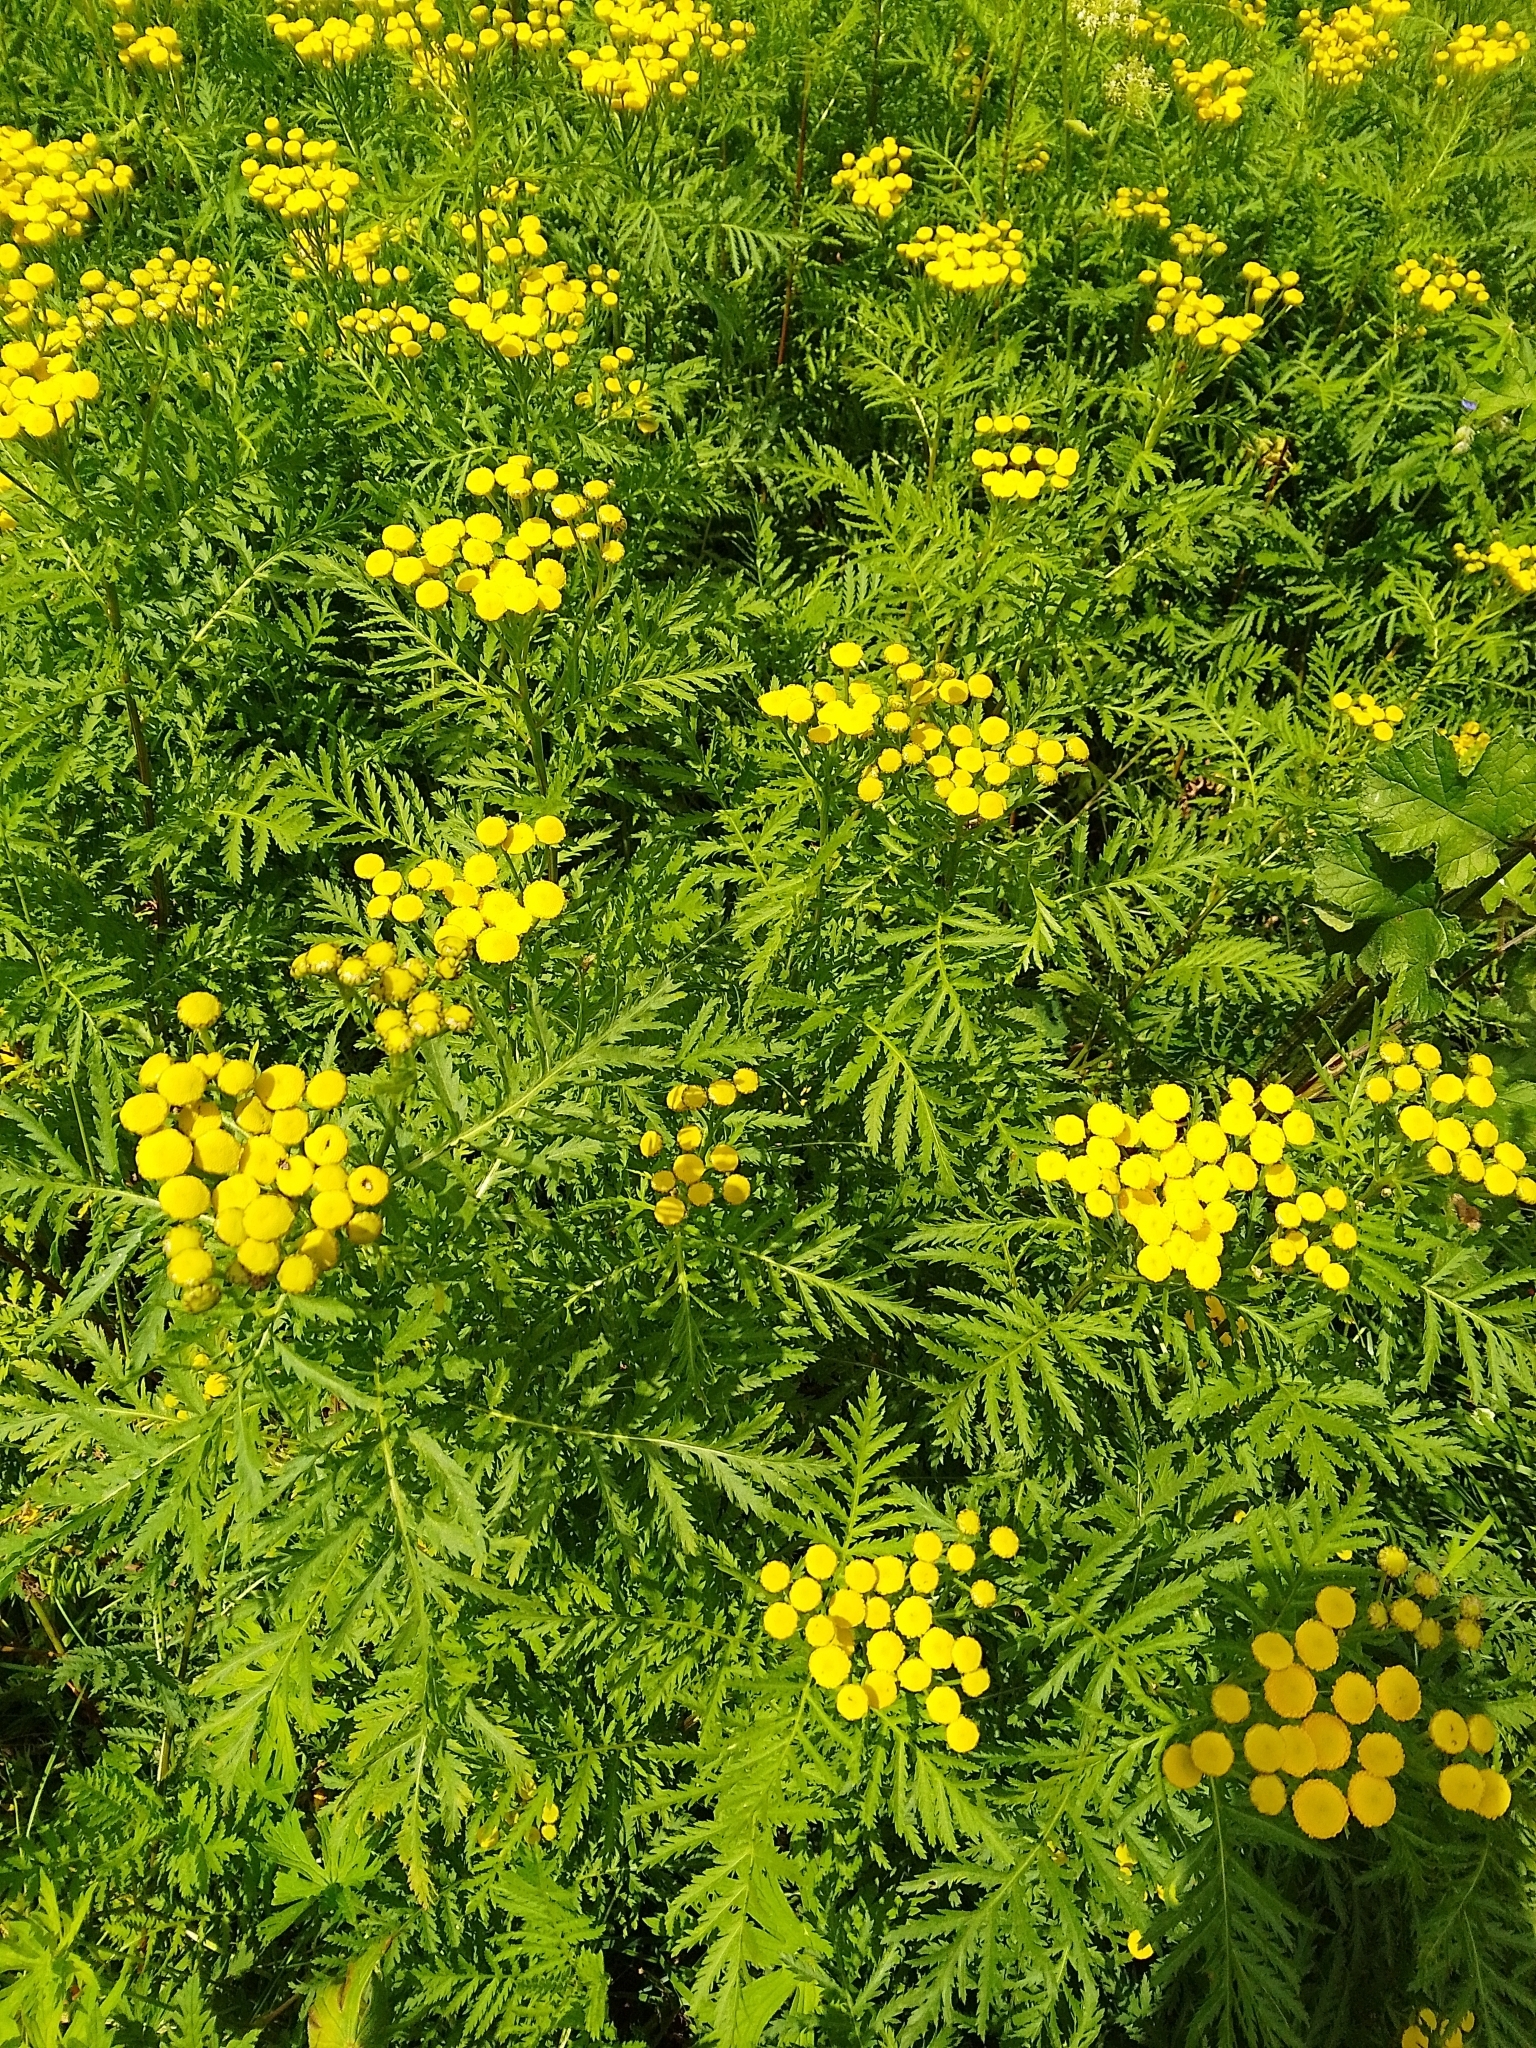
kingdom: Plantae
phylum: Tracheophyta
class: Magnoliopsida
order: Asterales
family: Asteraceae
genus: Tanacetum
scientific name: Tanacetum vulgare
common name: Common tansy
